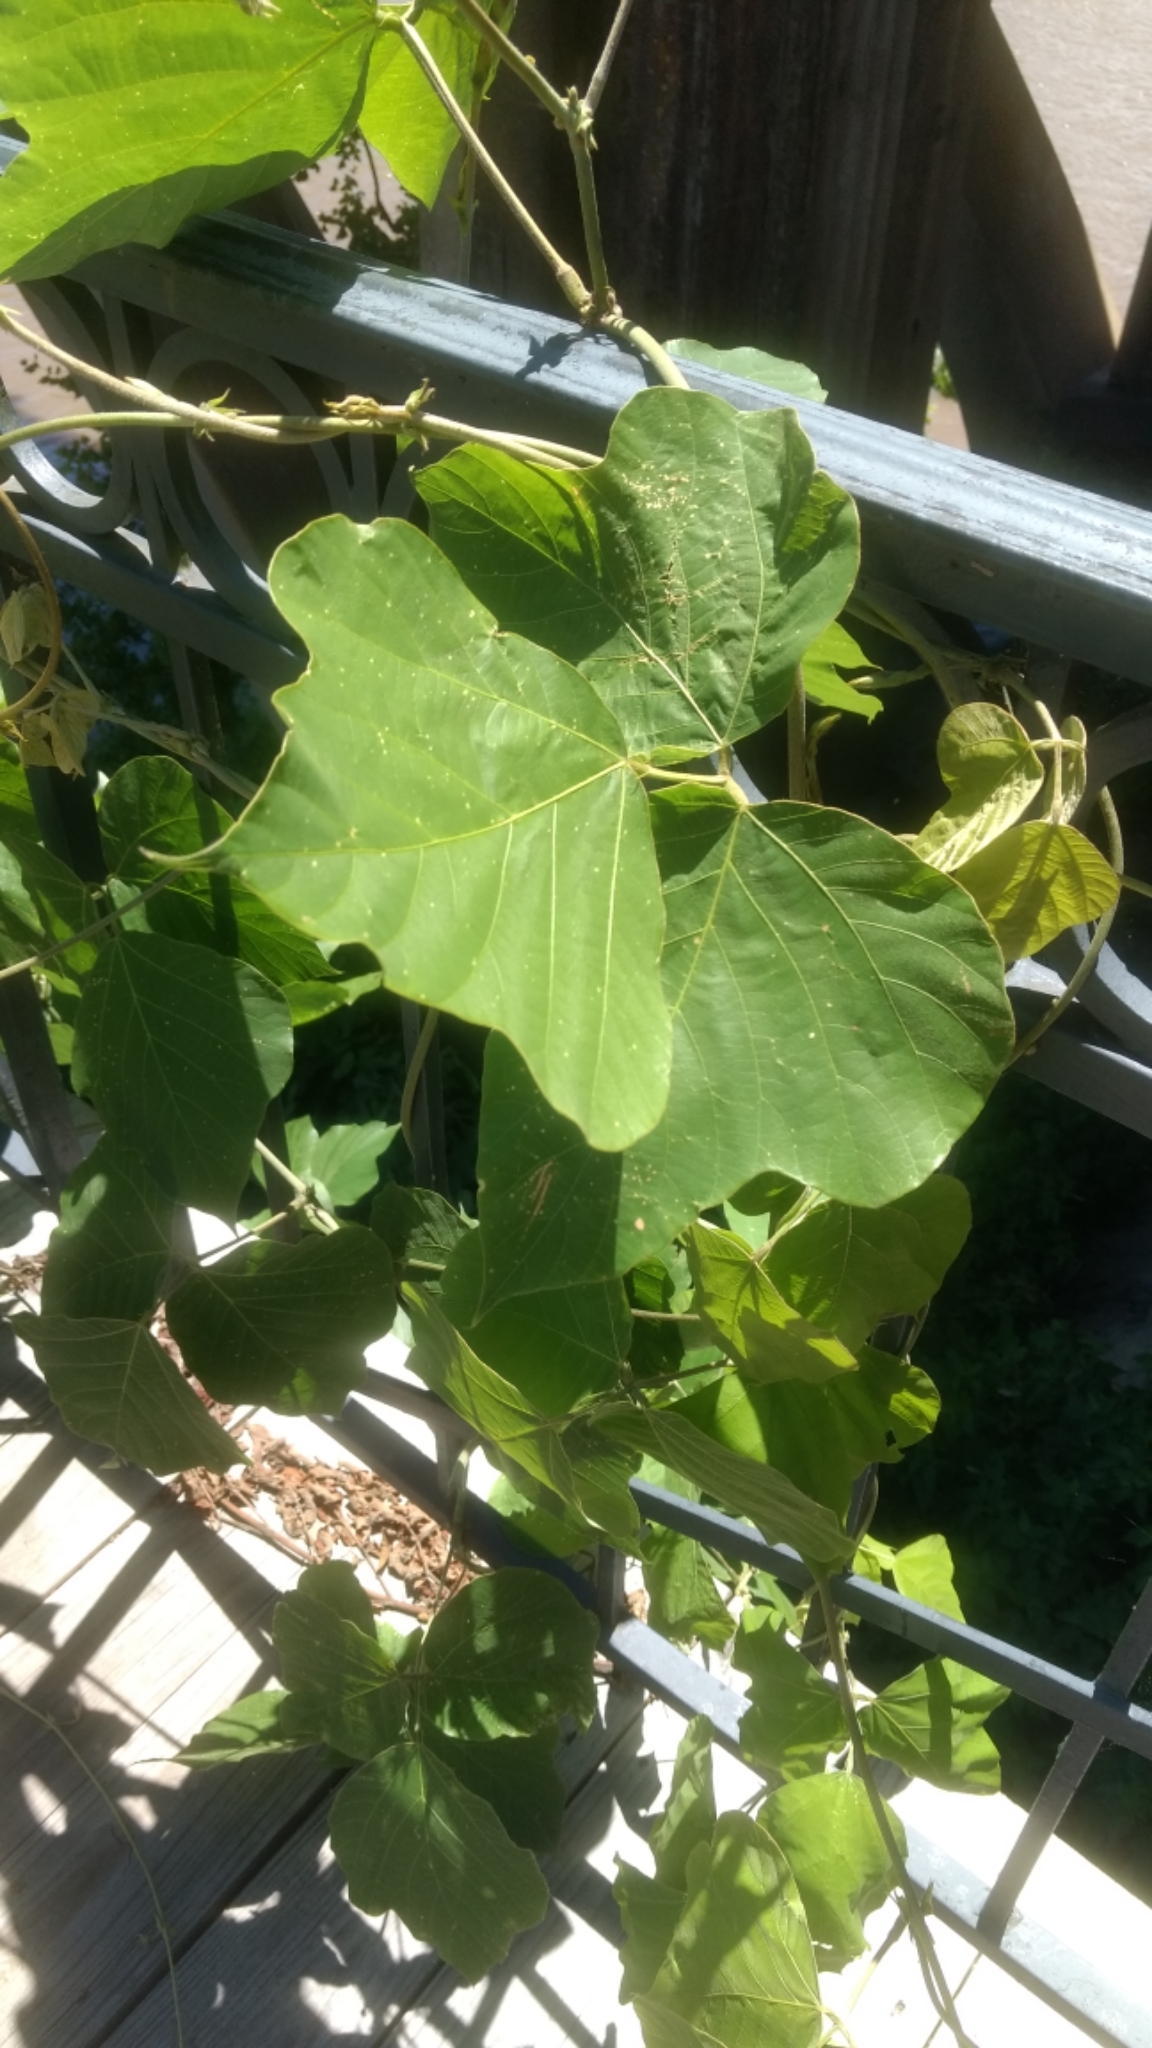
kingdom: Plantae
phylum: Tracheophyta
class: Magnoliopsida
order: Fabales
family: Fabaceae
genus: Pueraria
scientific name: Pueraria montana
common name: Kudzu
